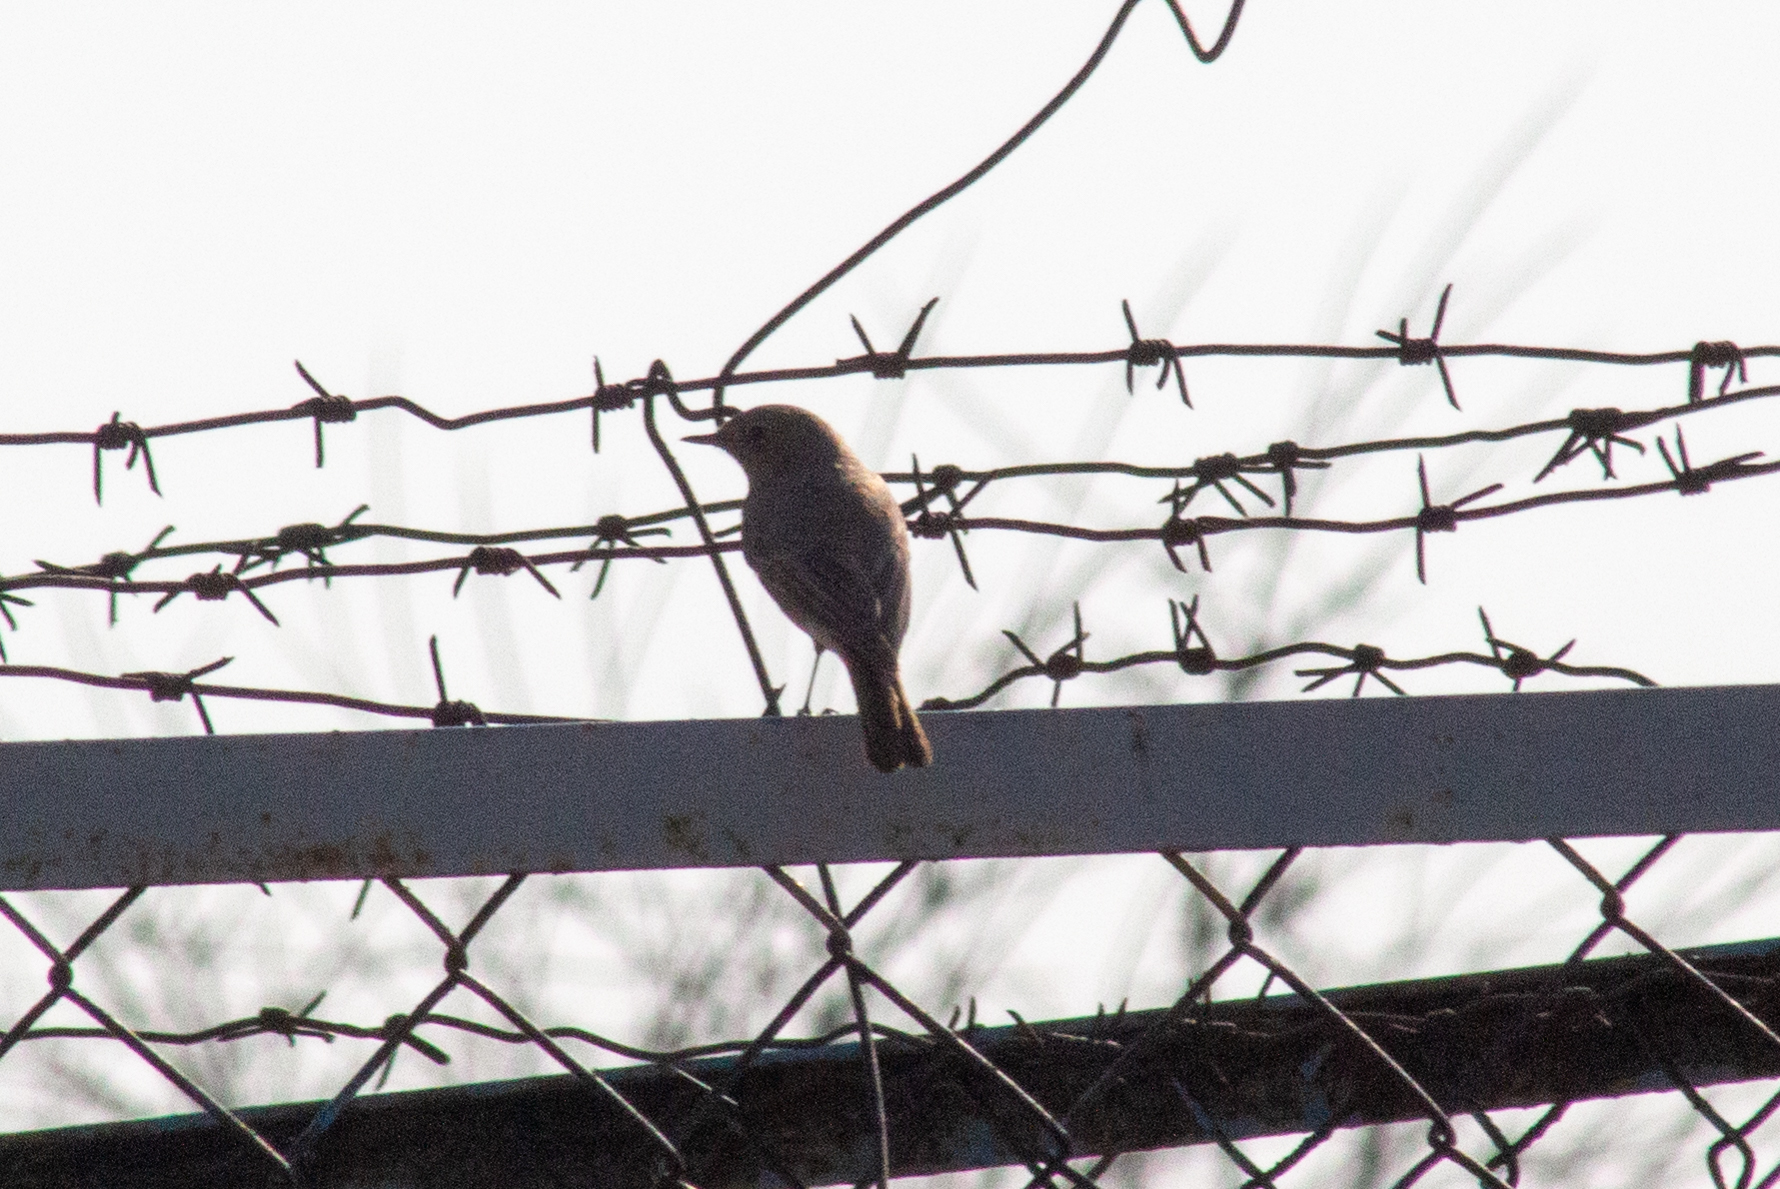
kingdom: Animalia
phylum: Chordata
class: Aves
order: Passeriformes
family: Muscicapidae
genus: Phoenicurus
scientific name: Phoenicurus ochruros
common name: Black redstart
